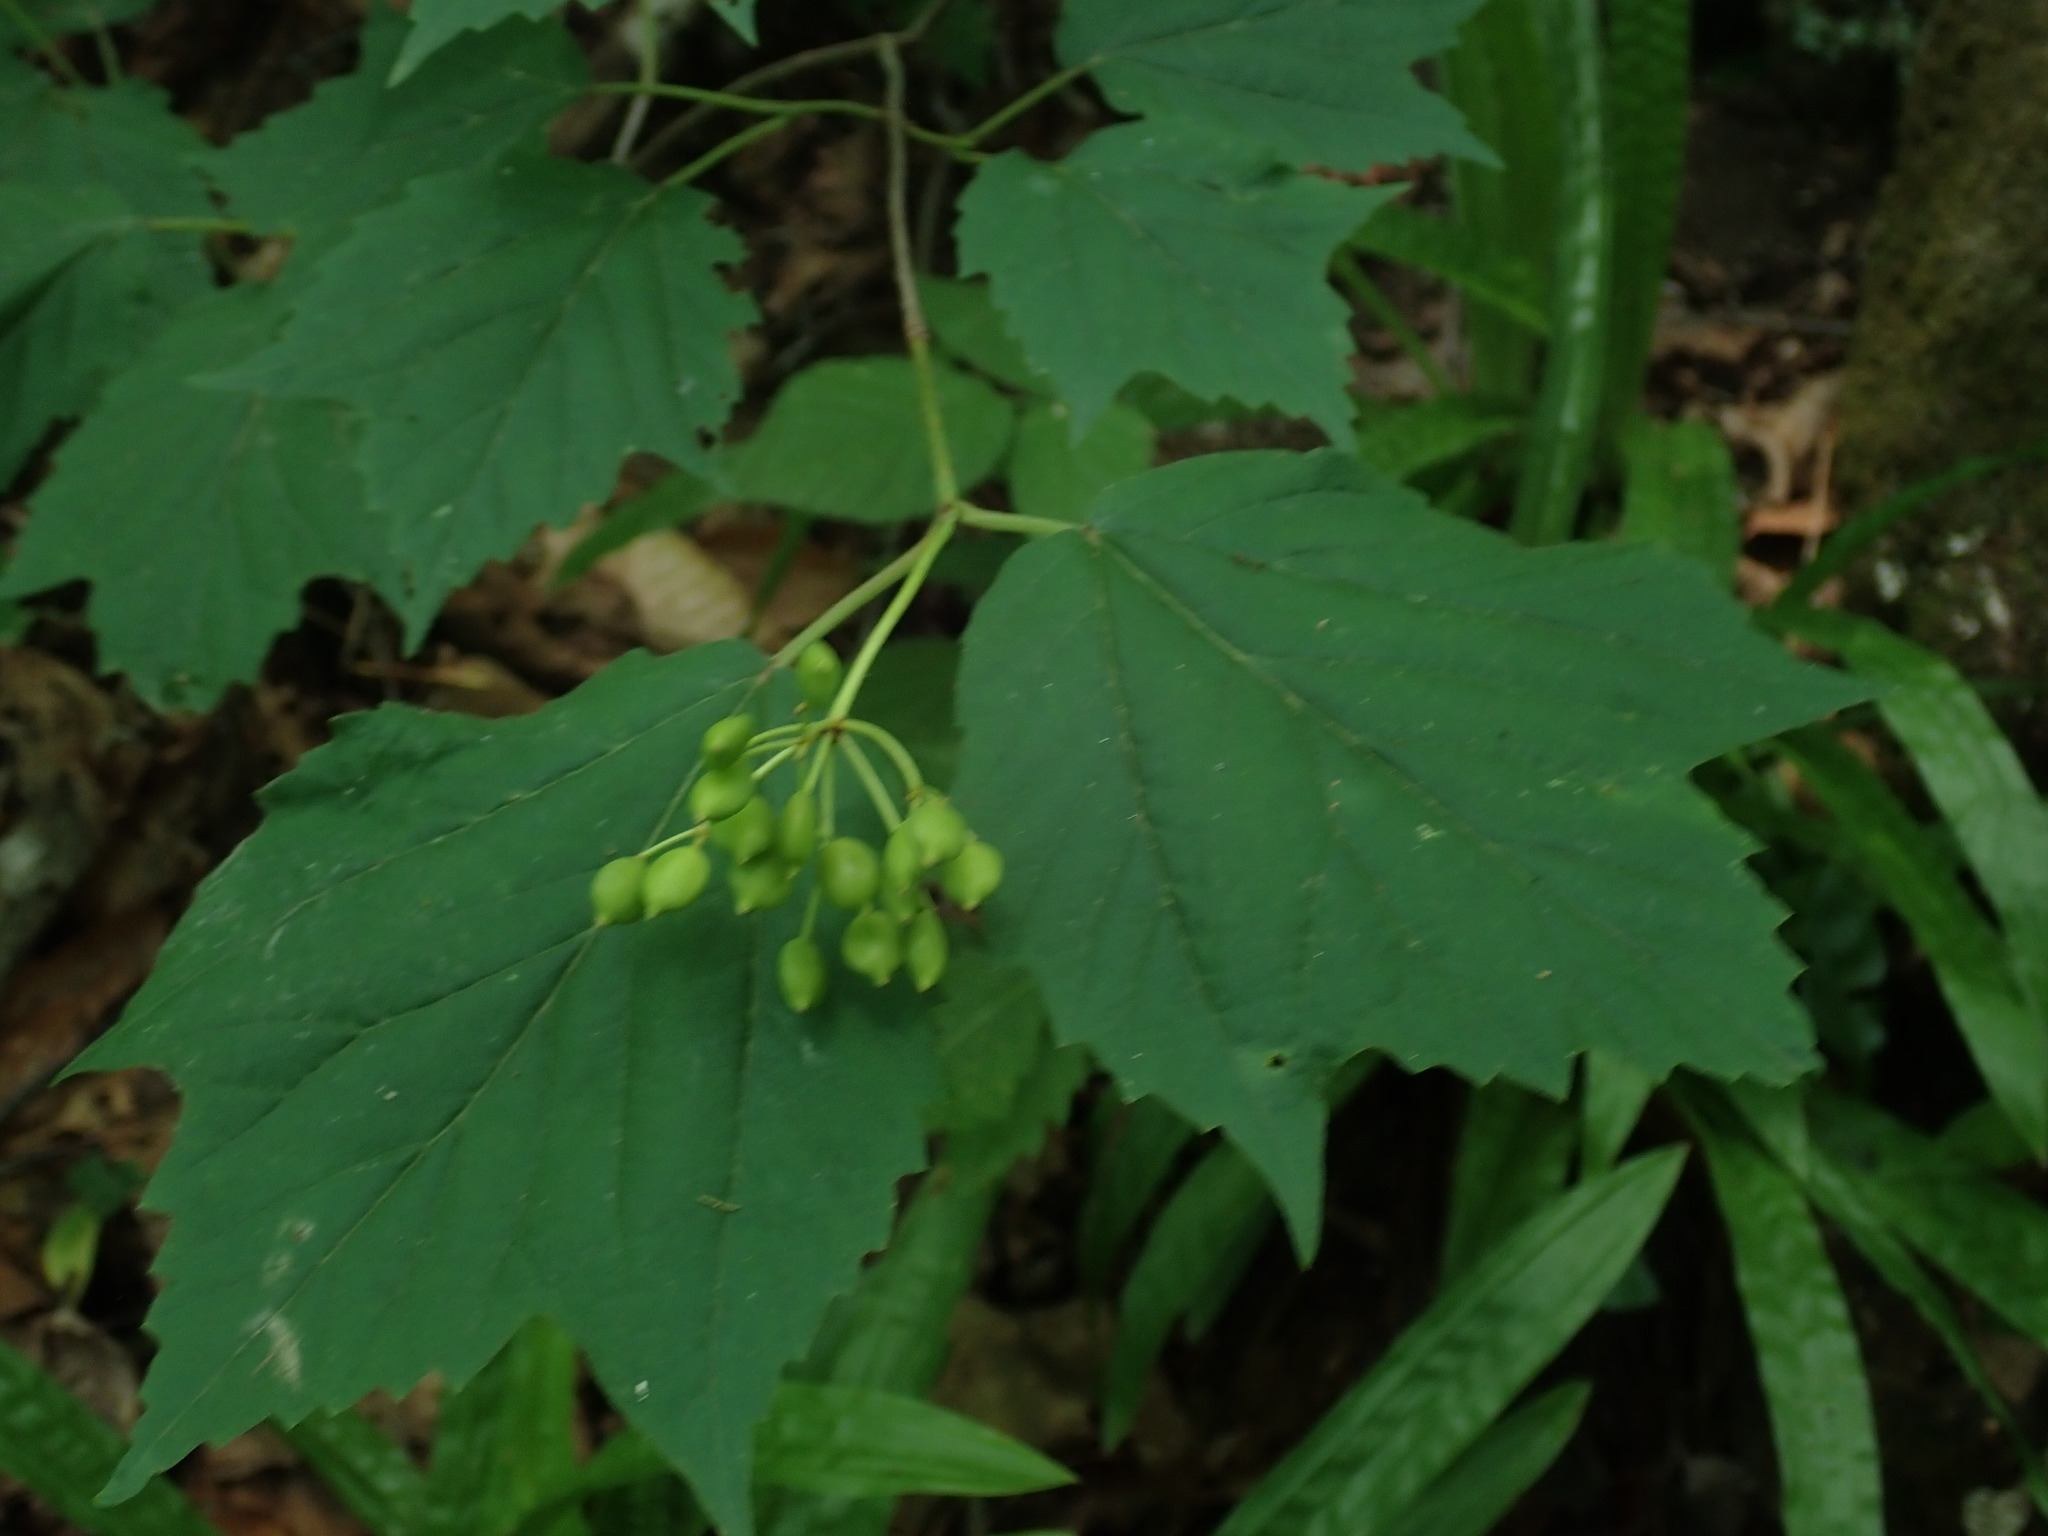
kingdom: Plantae
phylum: Tracheophyta
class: Magnoliopsida
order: Dipsacales
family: Viburnaceae
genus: Viburnum
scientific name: Viburnum acerifolium
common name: Dockmackie
